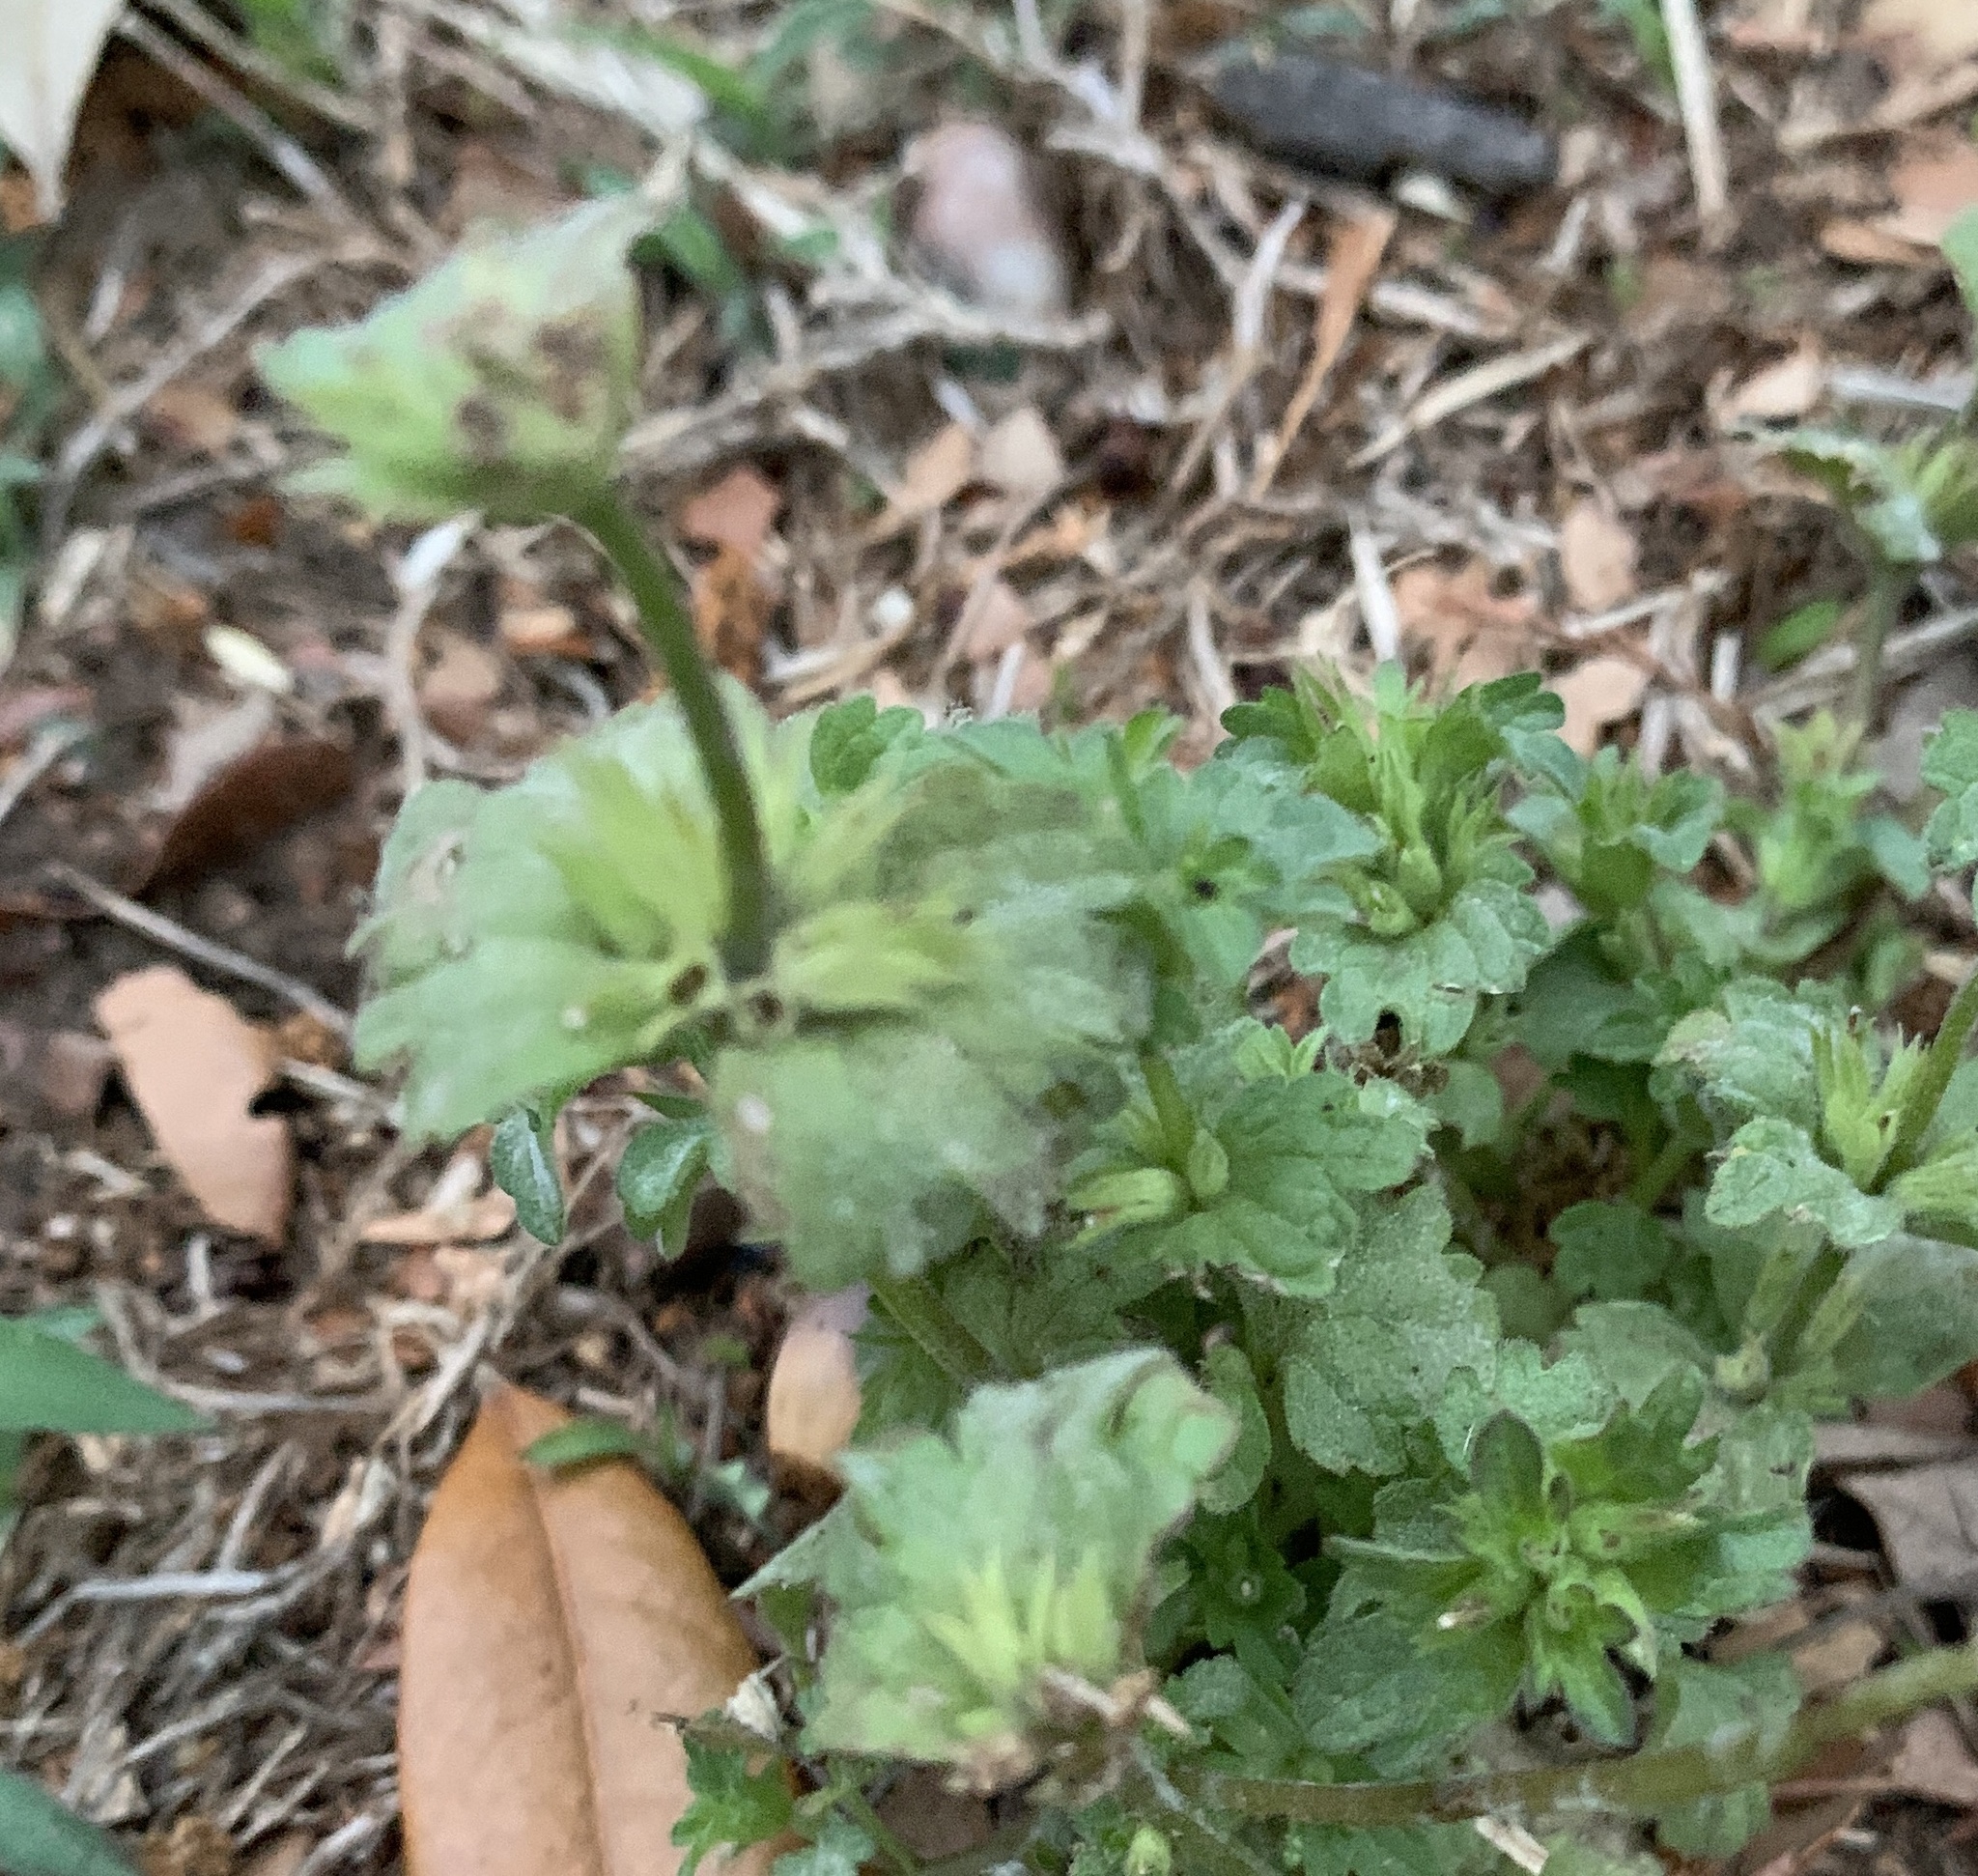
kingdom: Plantae
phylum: Tracheophyta
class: Magnoliopsida
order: Lamiales
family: Lamiaceae
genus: Lamium
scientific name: Lamium amplexicaule
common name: Henbit dead-nettle
